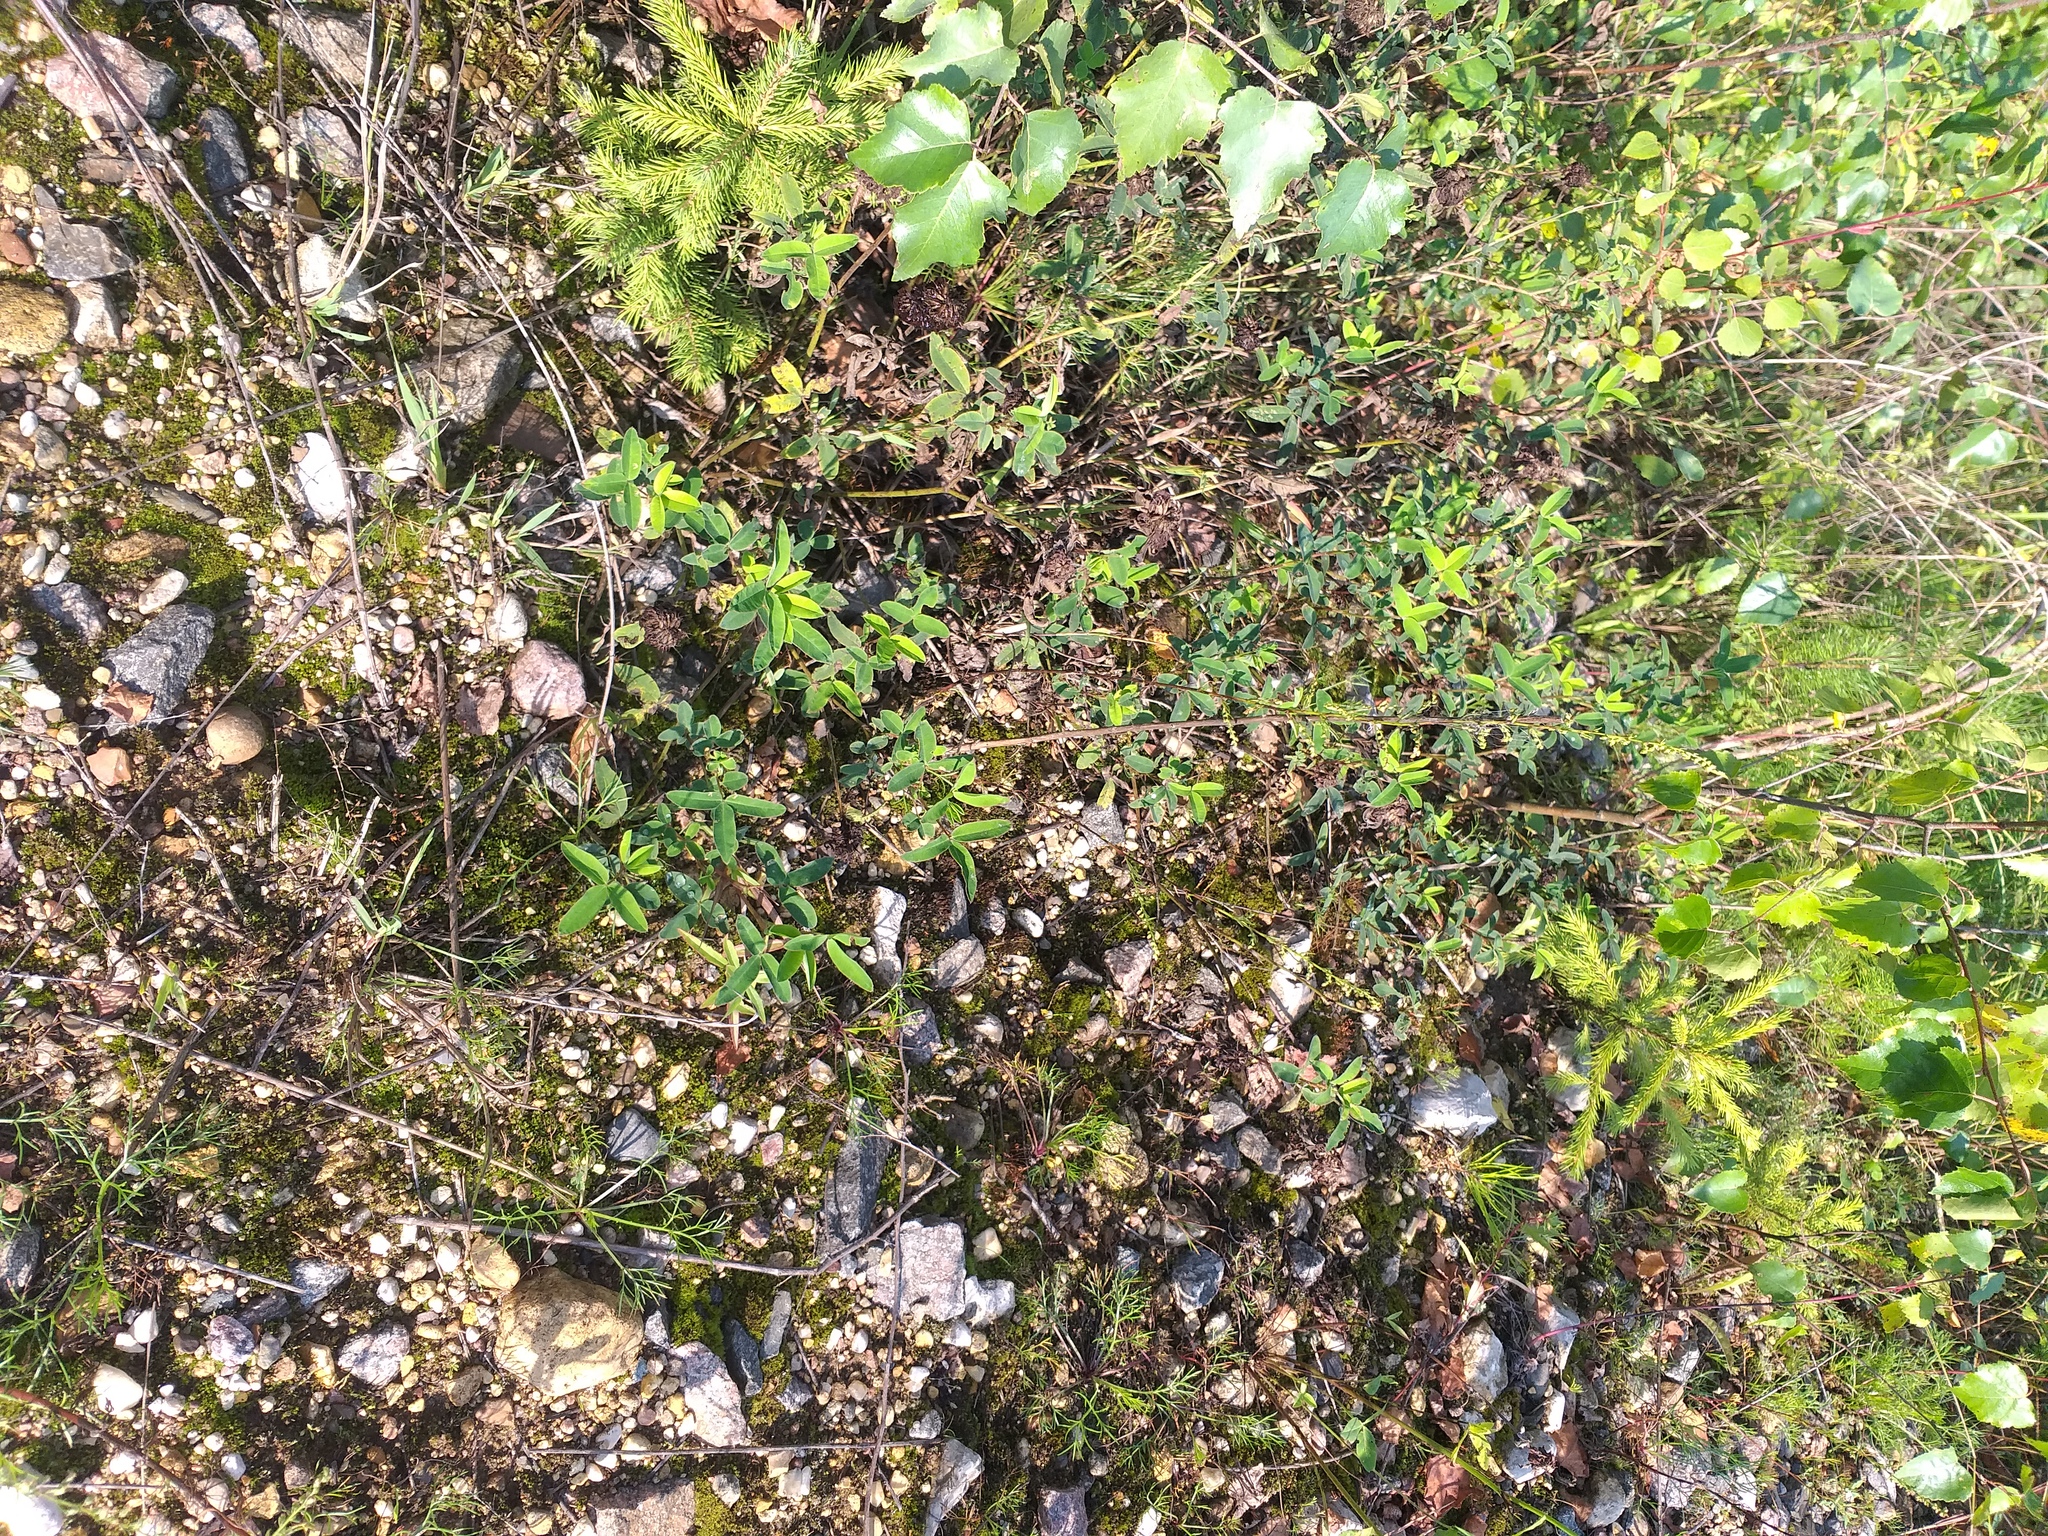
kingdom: Plantae
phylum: Tracheophyta
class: Magnoliopsida
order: Fabales
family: Fabaceae
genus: Trifolium
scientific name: Trifolium medium
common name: Zigzag clover
